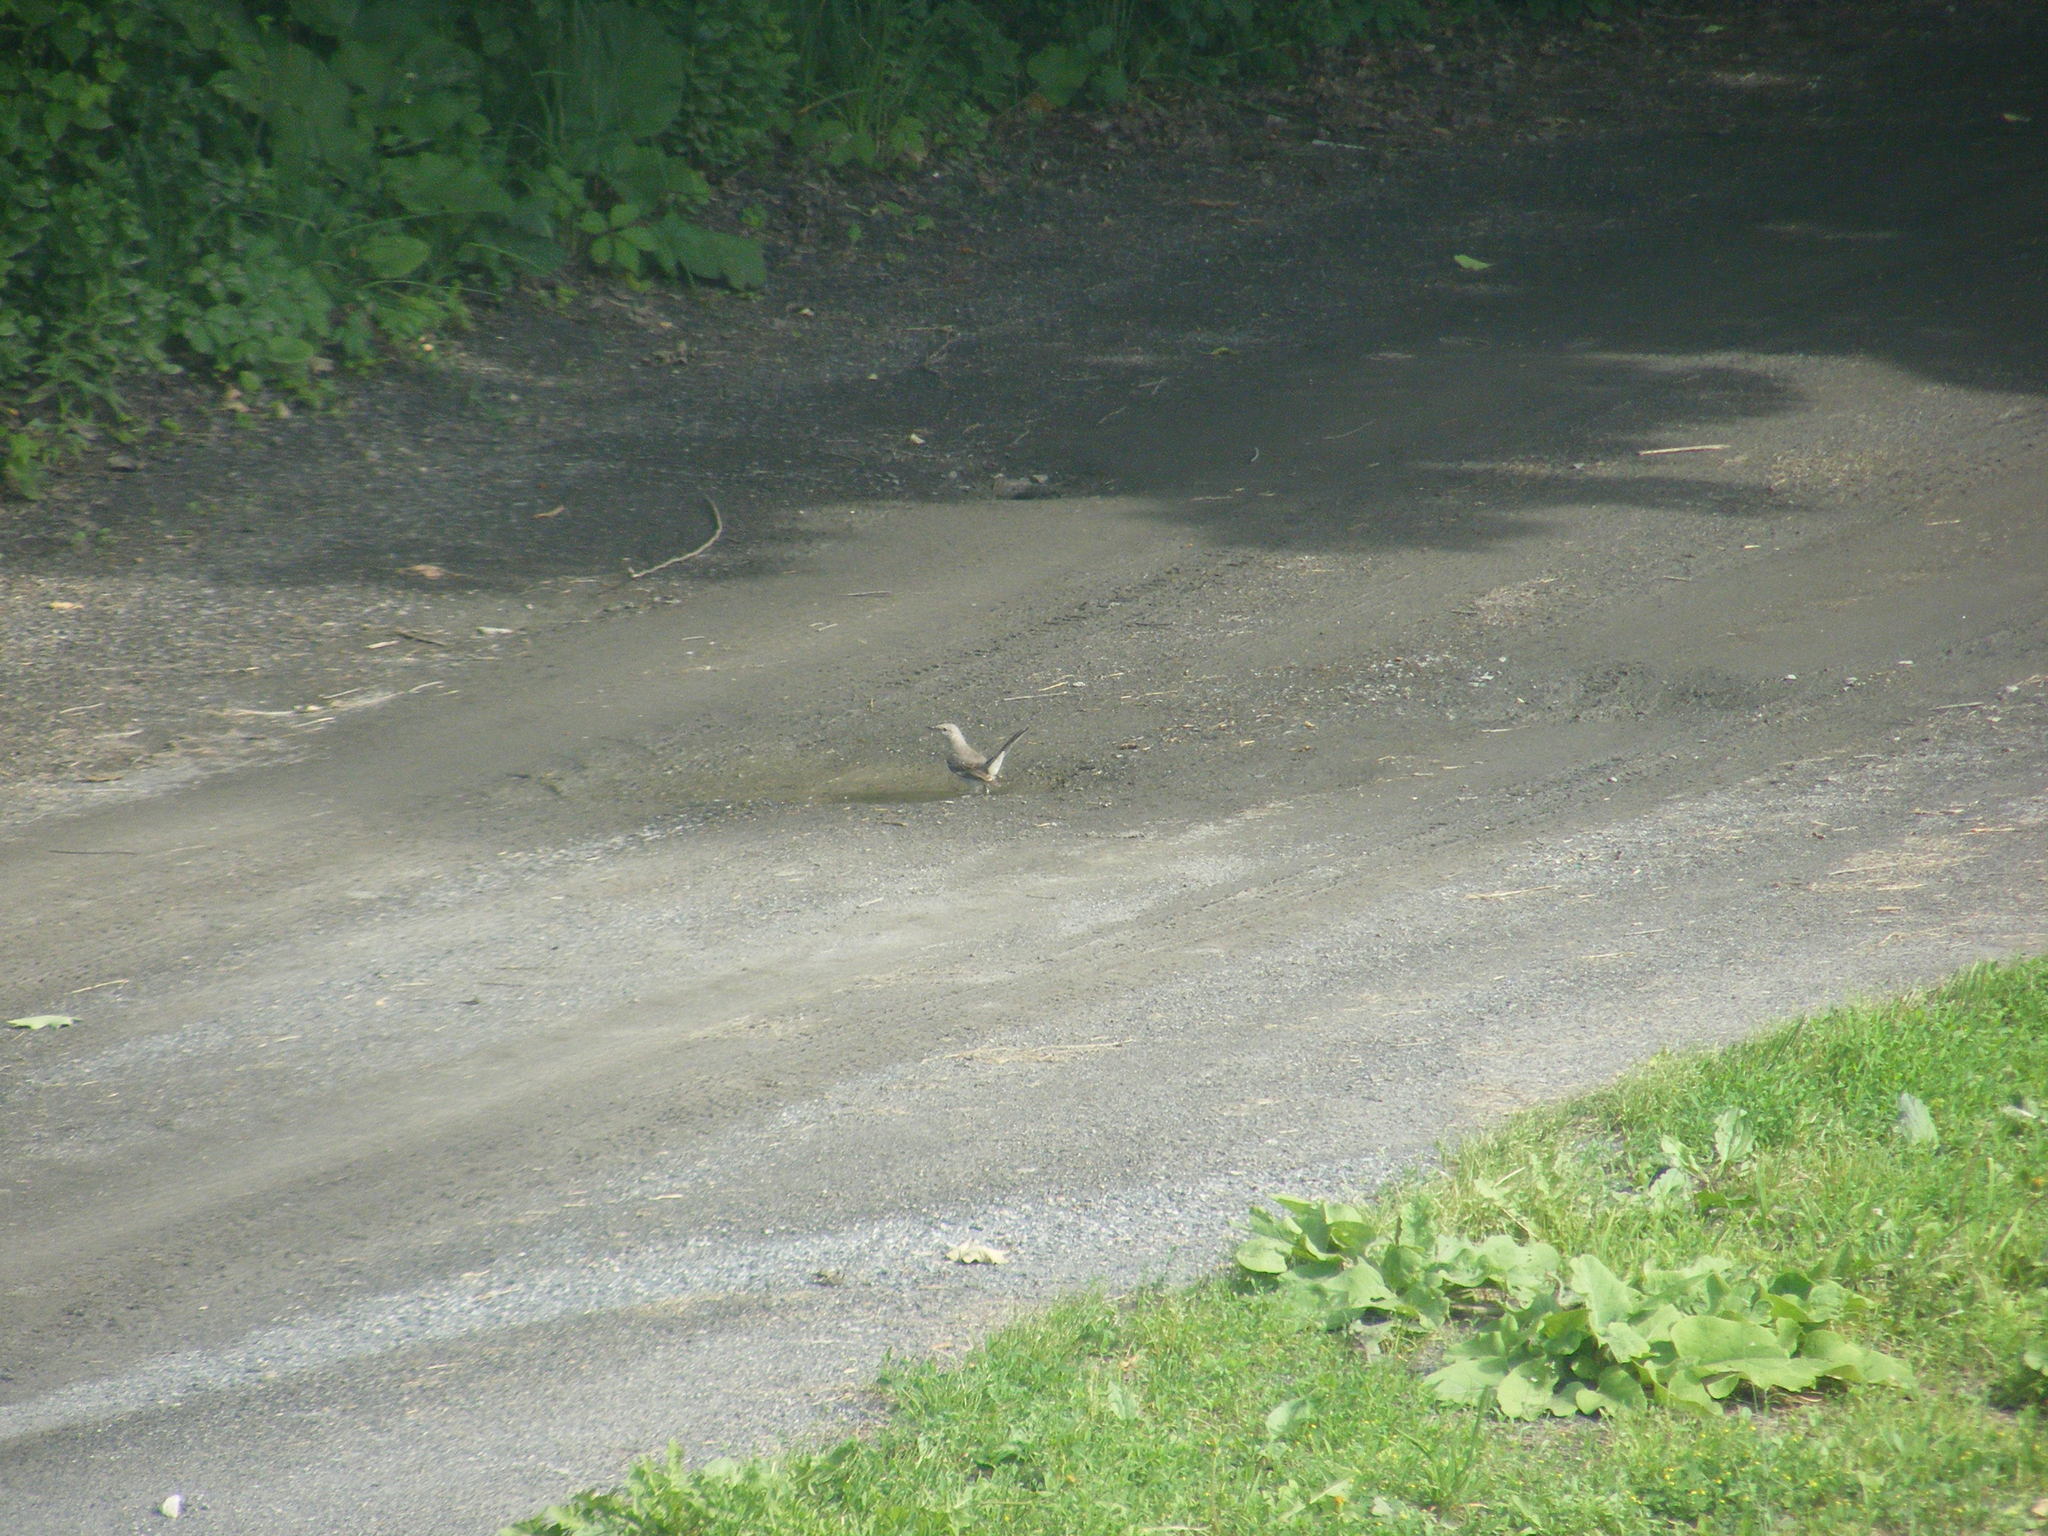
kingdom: Animalia
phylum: Chordata
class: Aves
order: Passeriformes
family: Mimidae
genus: Mimus
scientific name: Mimus polyglottos
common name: Northern mockingbird
